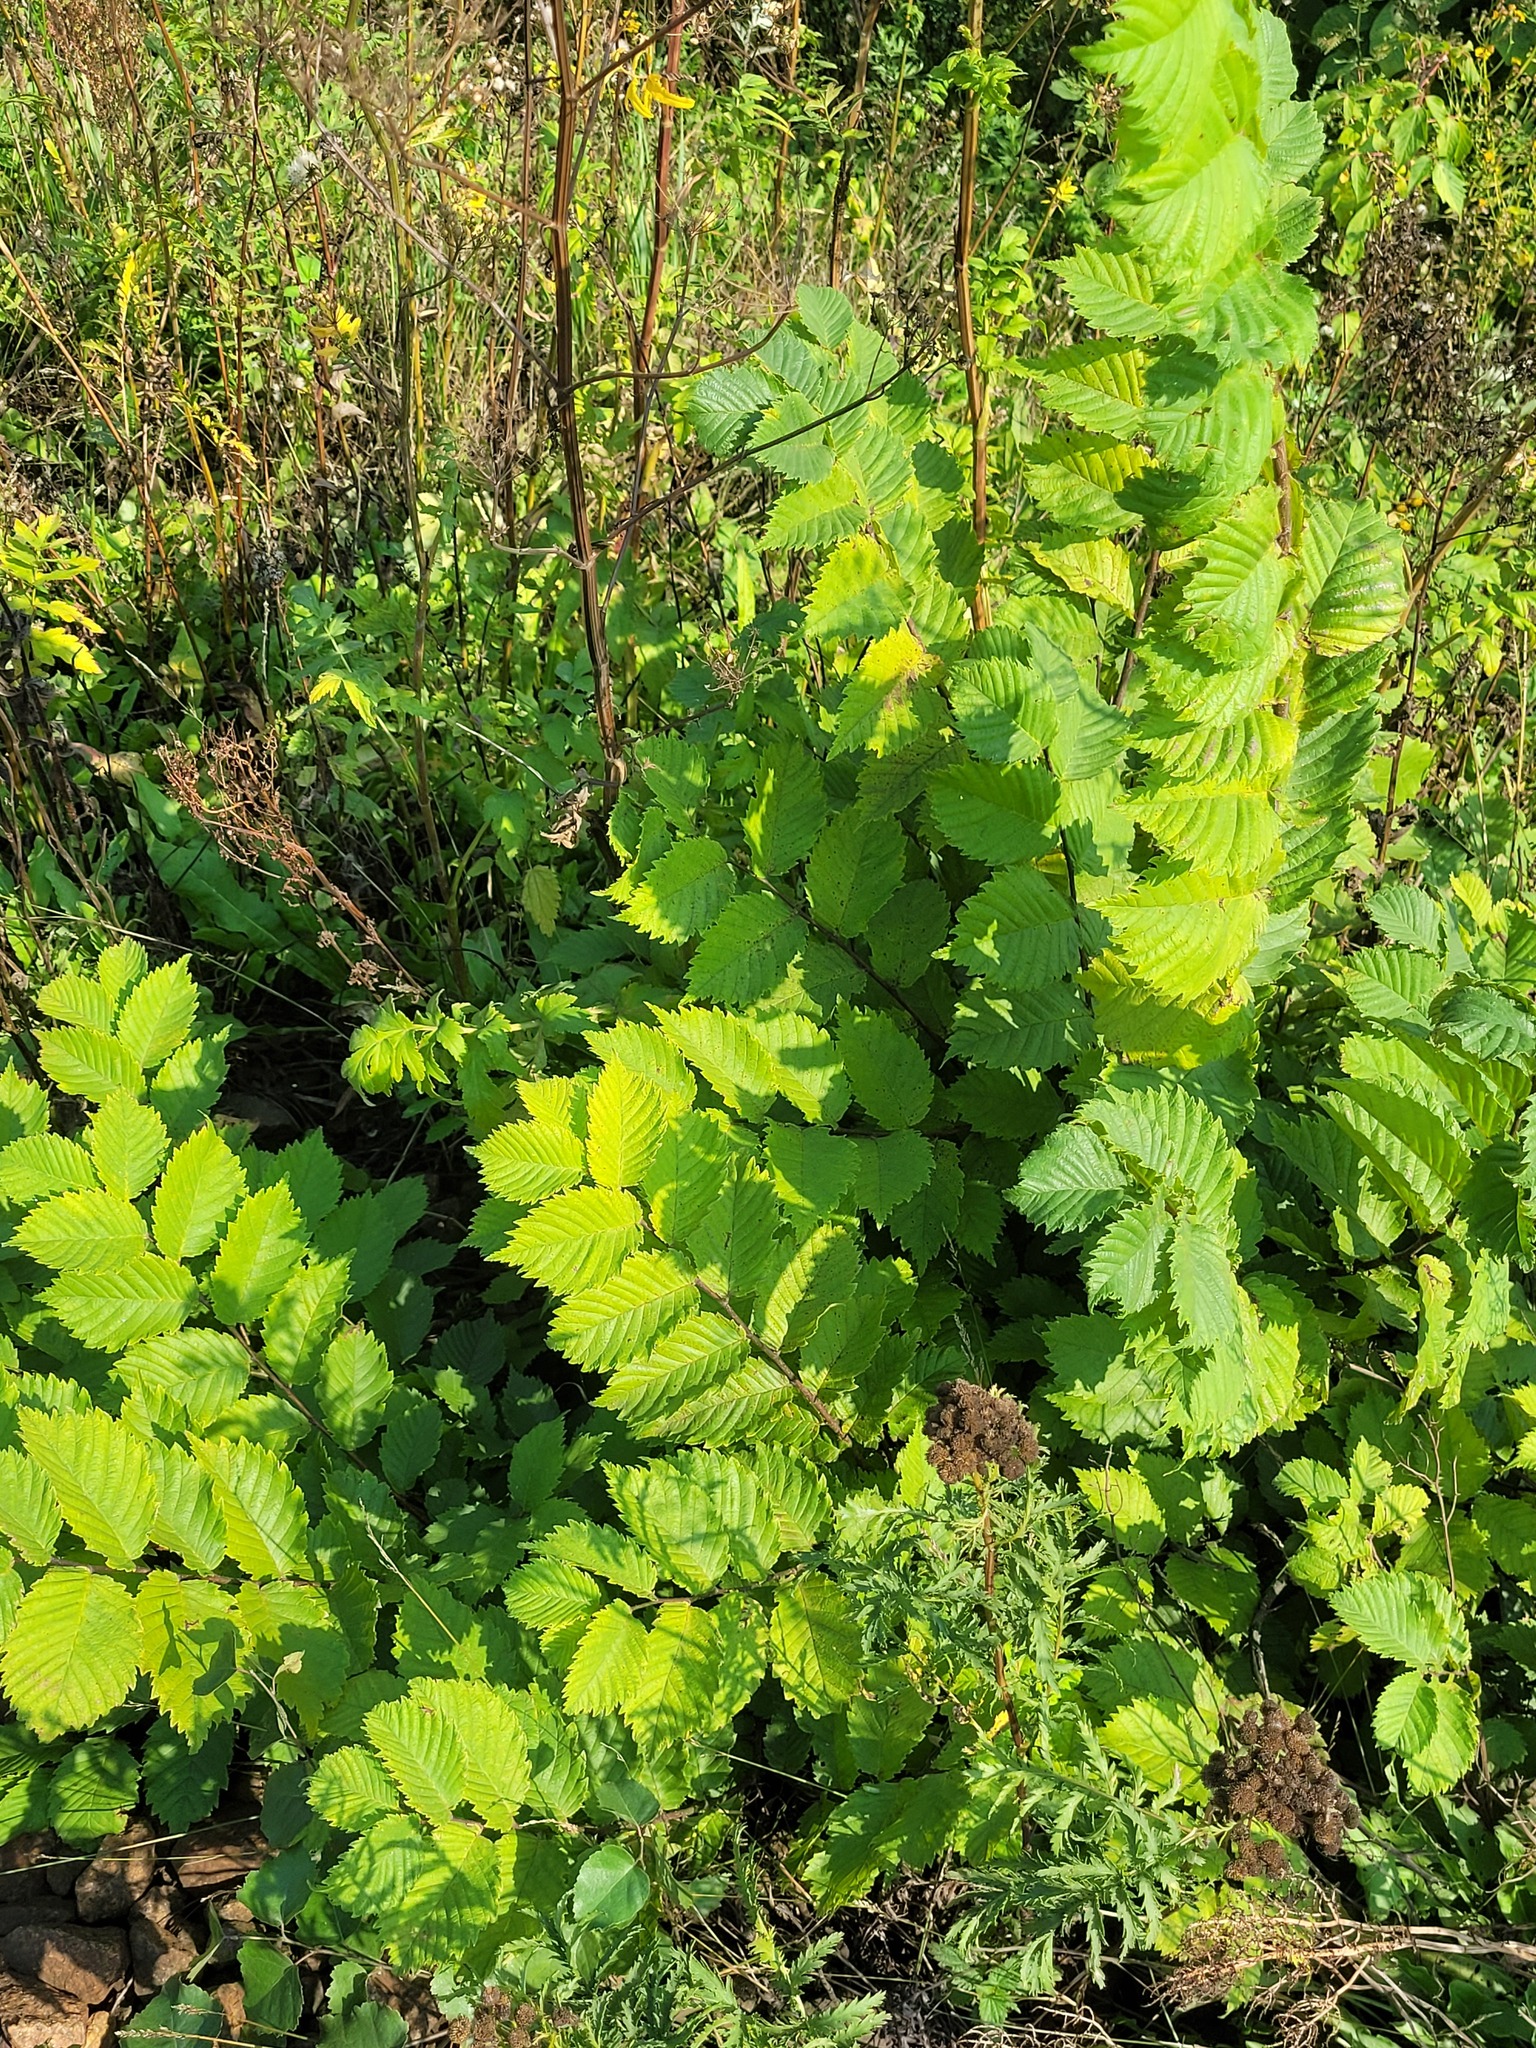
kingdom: Plantae
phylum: Tracheophyta
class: Magnoliopsida
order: Rosales
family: Ulmaceae
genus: Ulmus
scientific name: Ulmus laevis
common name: European white-elm
